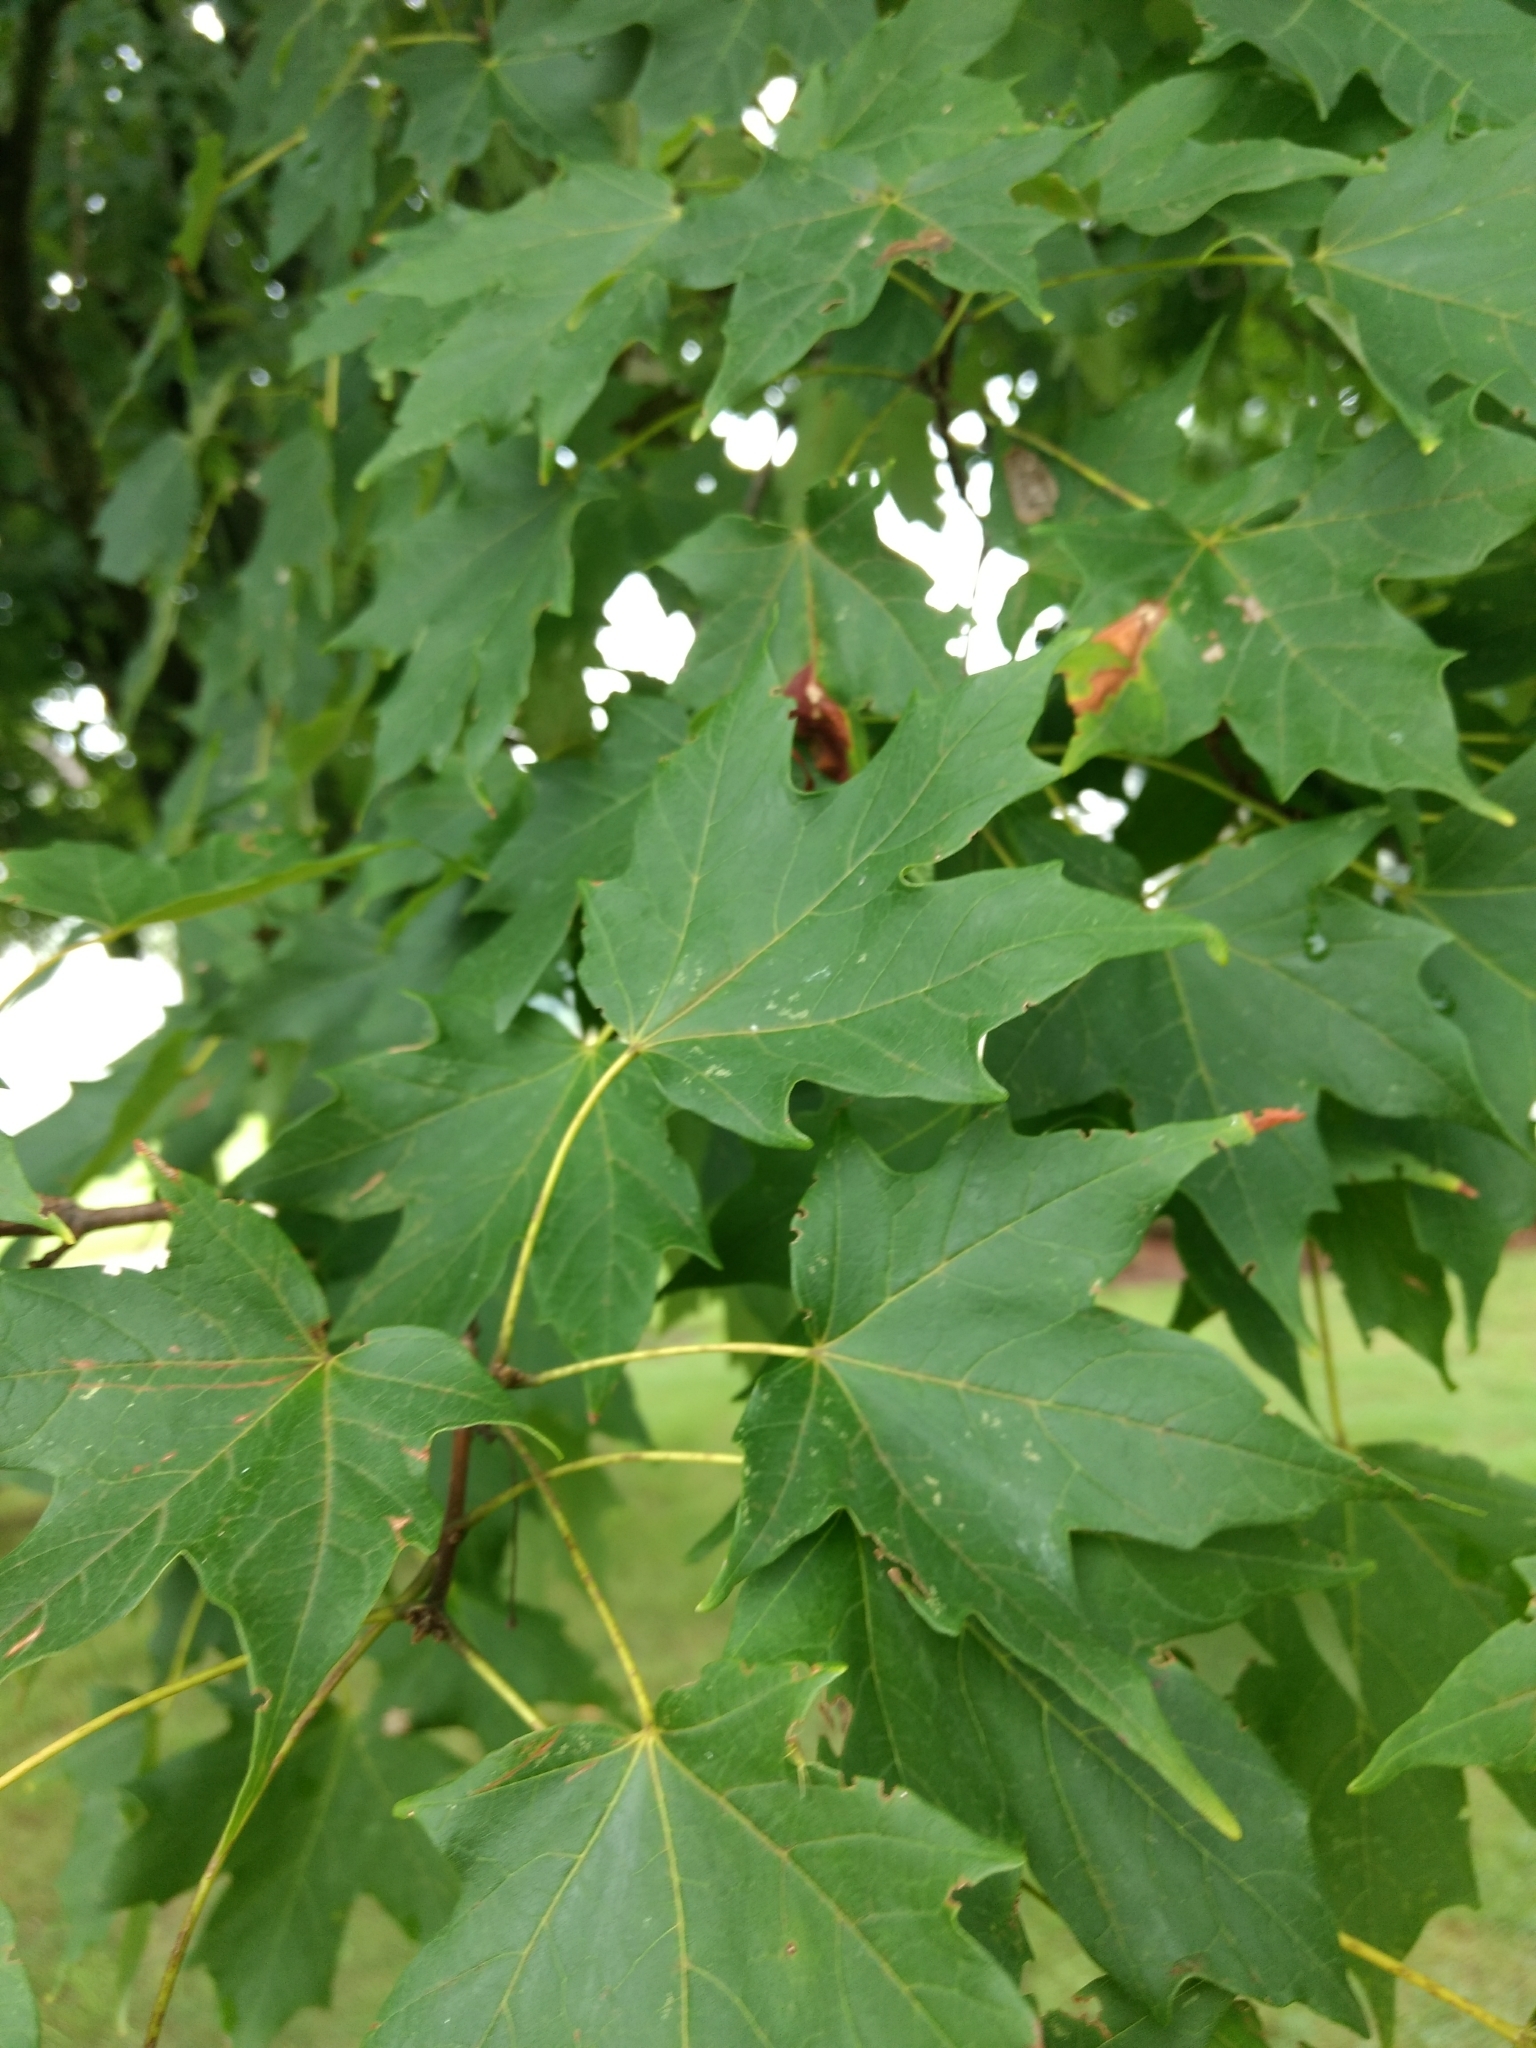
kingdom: Plantae
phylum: Tracheophyta
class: Magnoliopsida
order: Sapindales
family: Sapindaceae
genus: Acer
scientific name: Acer saccharum
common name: Sugar maple
